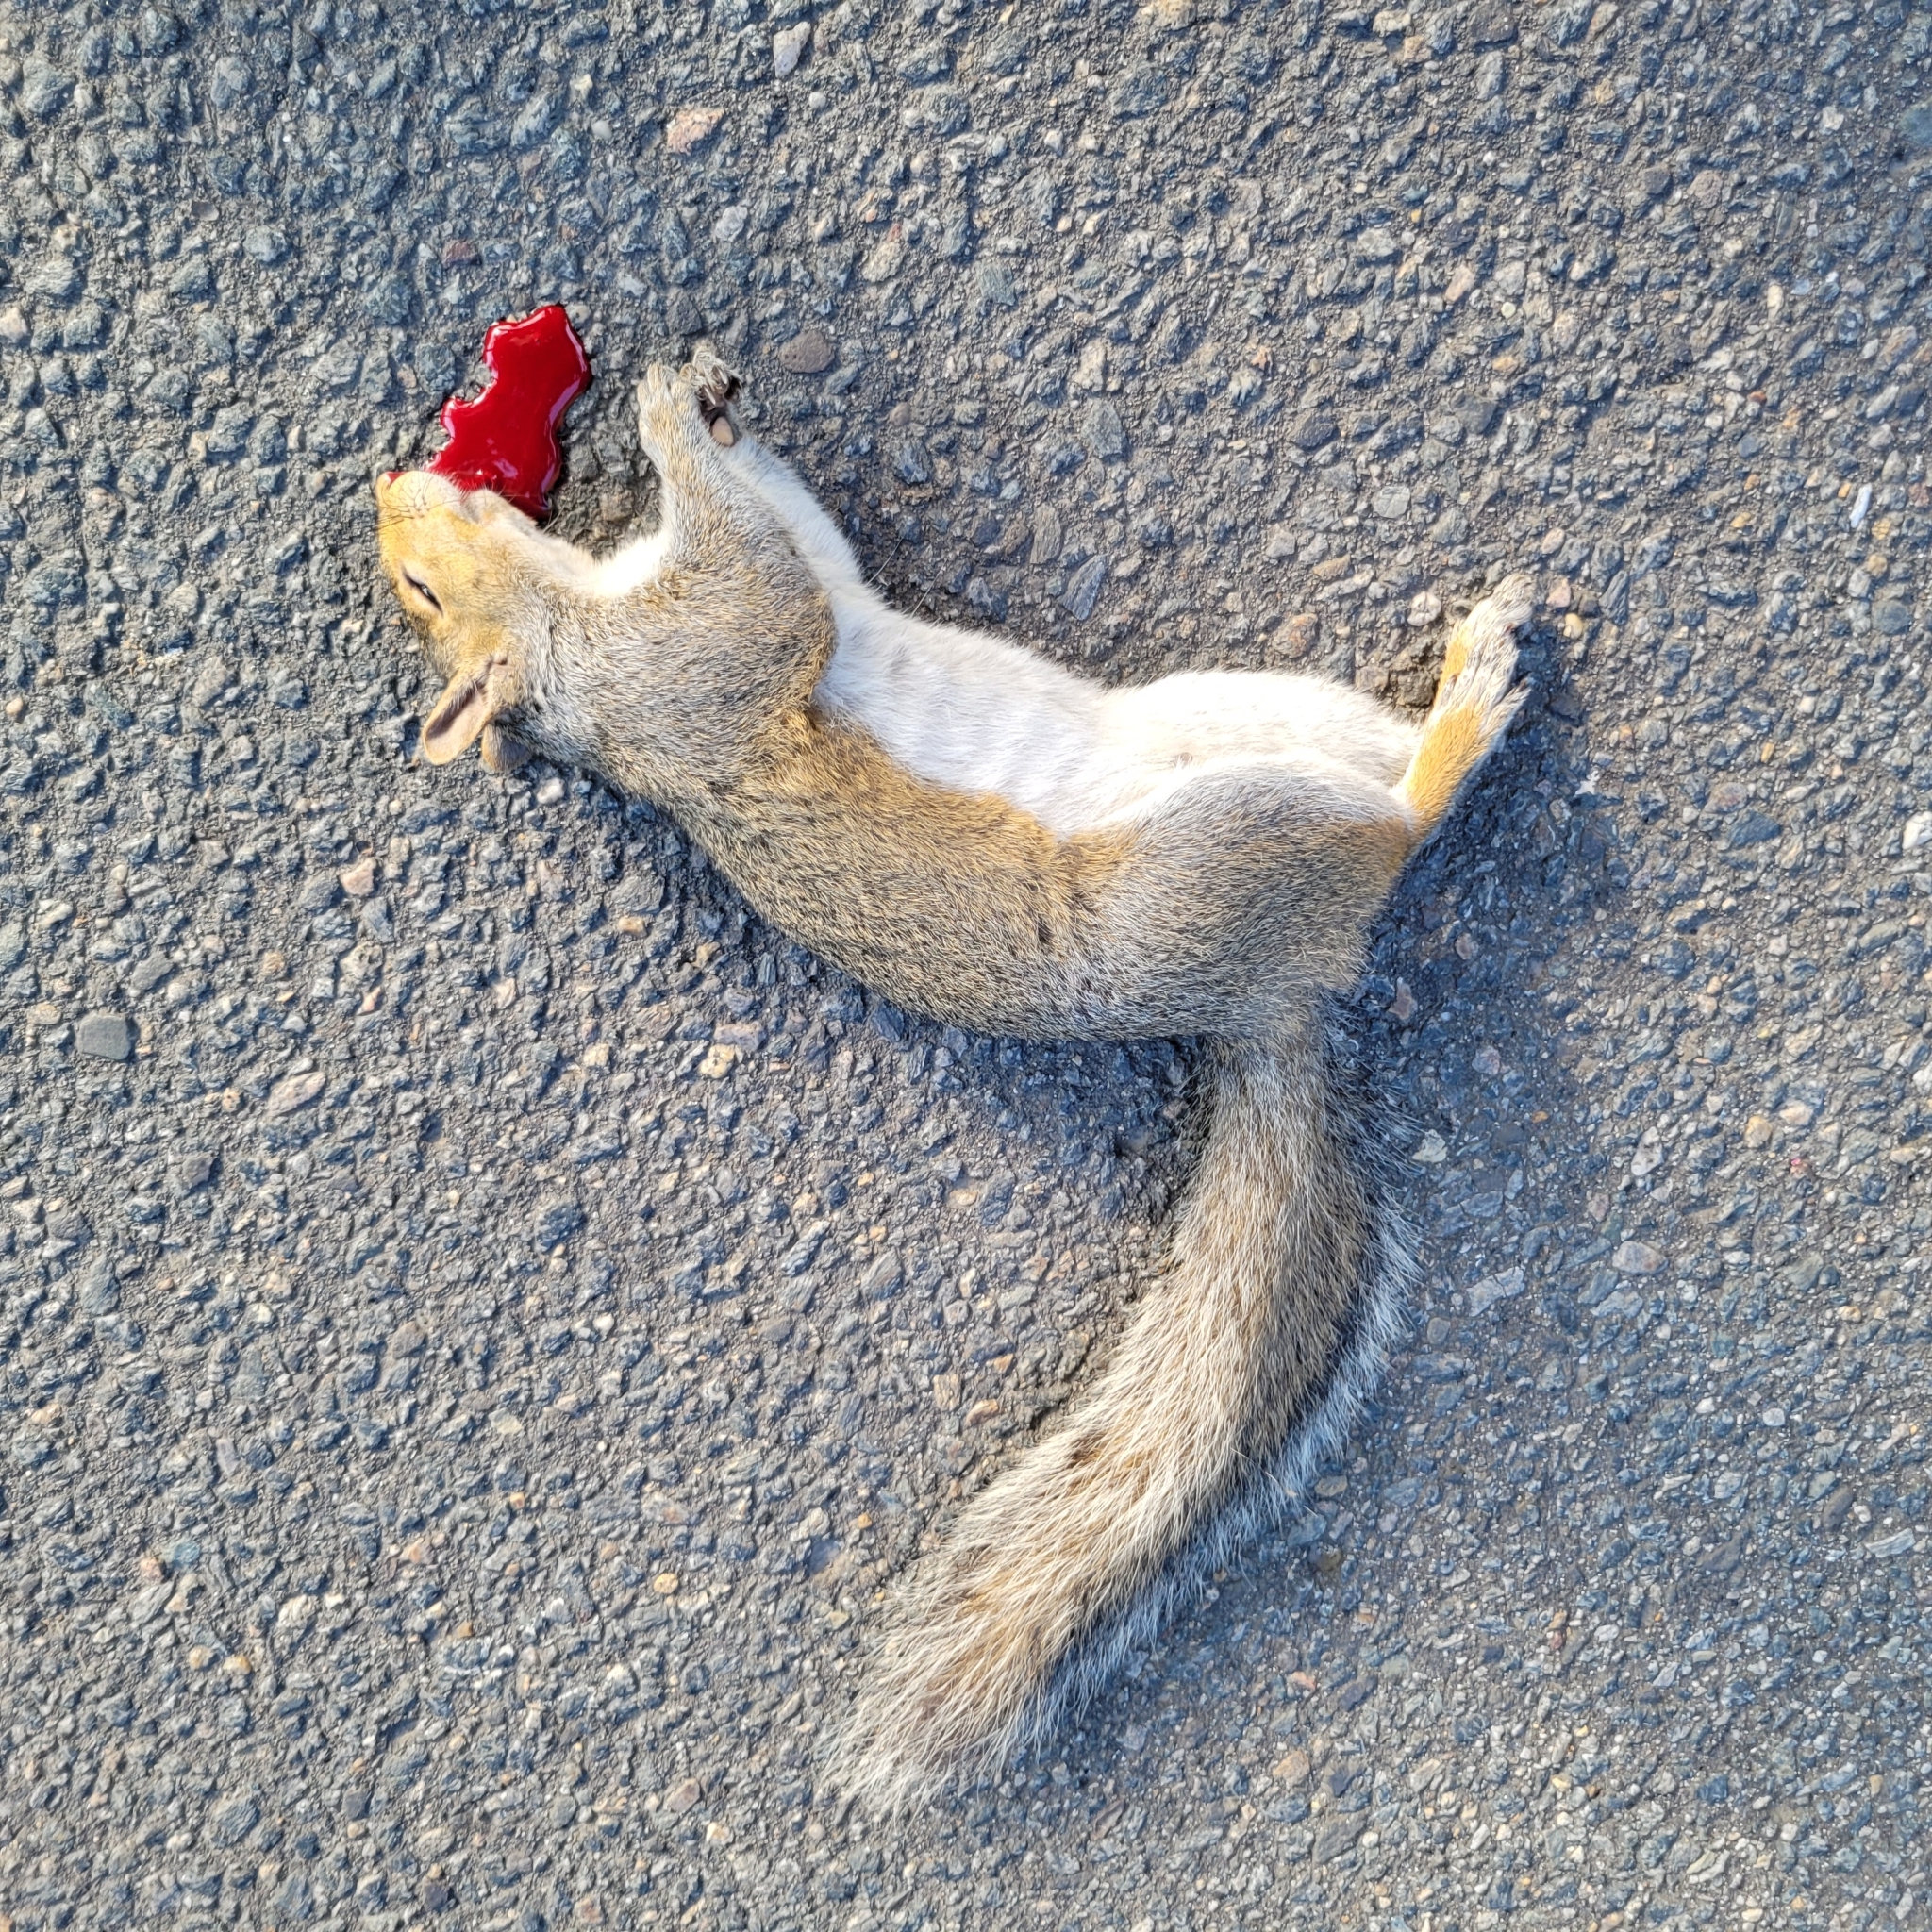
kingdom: Animalia
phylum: Chordata
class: Mammalia
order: Rodentia
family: Sciuridae
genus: Sciurus
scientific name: Sciurus carolinensis
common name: Eastern gray squirrel
